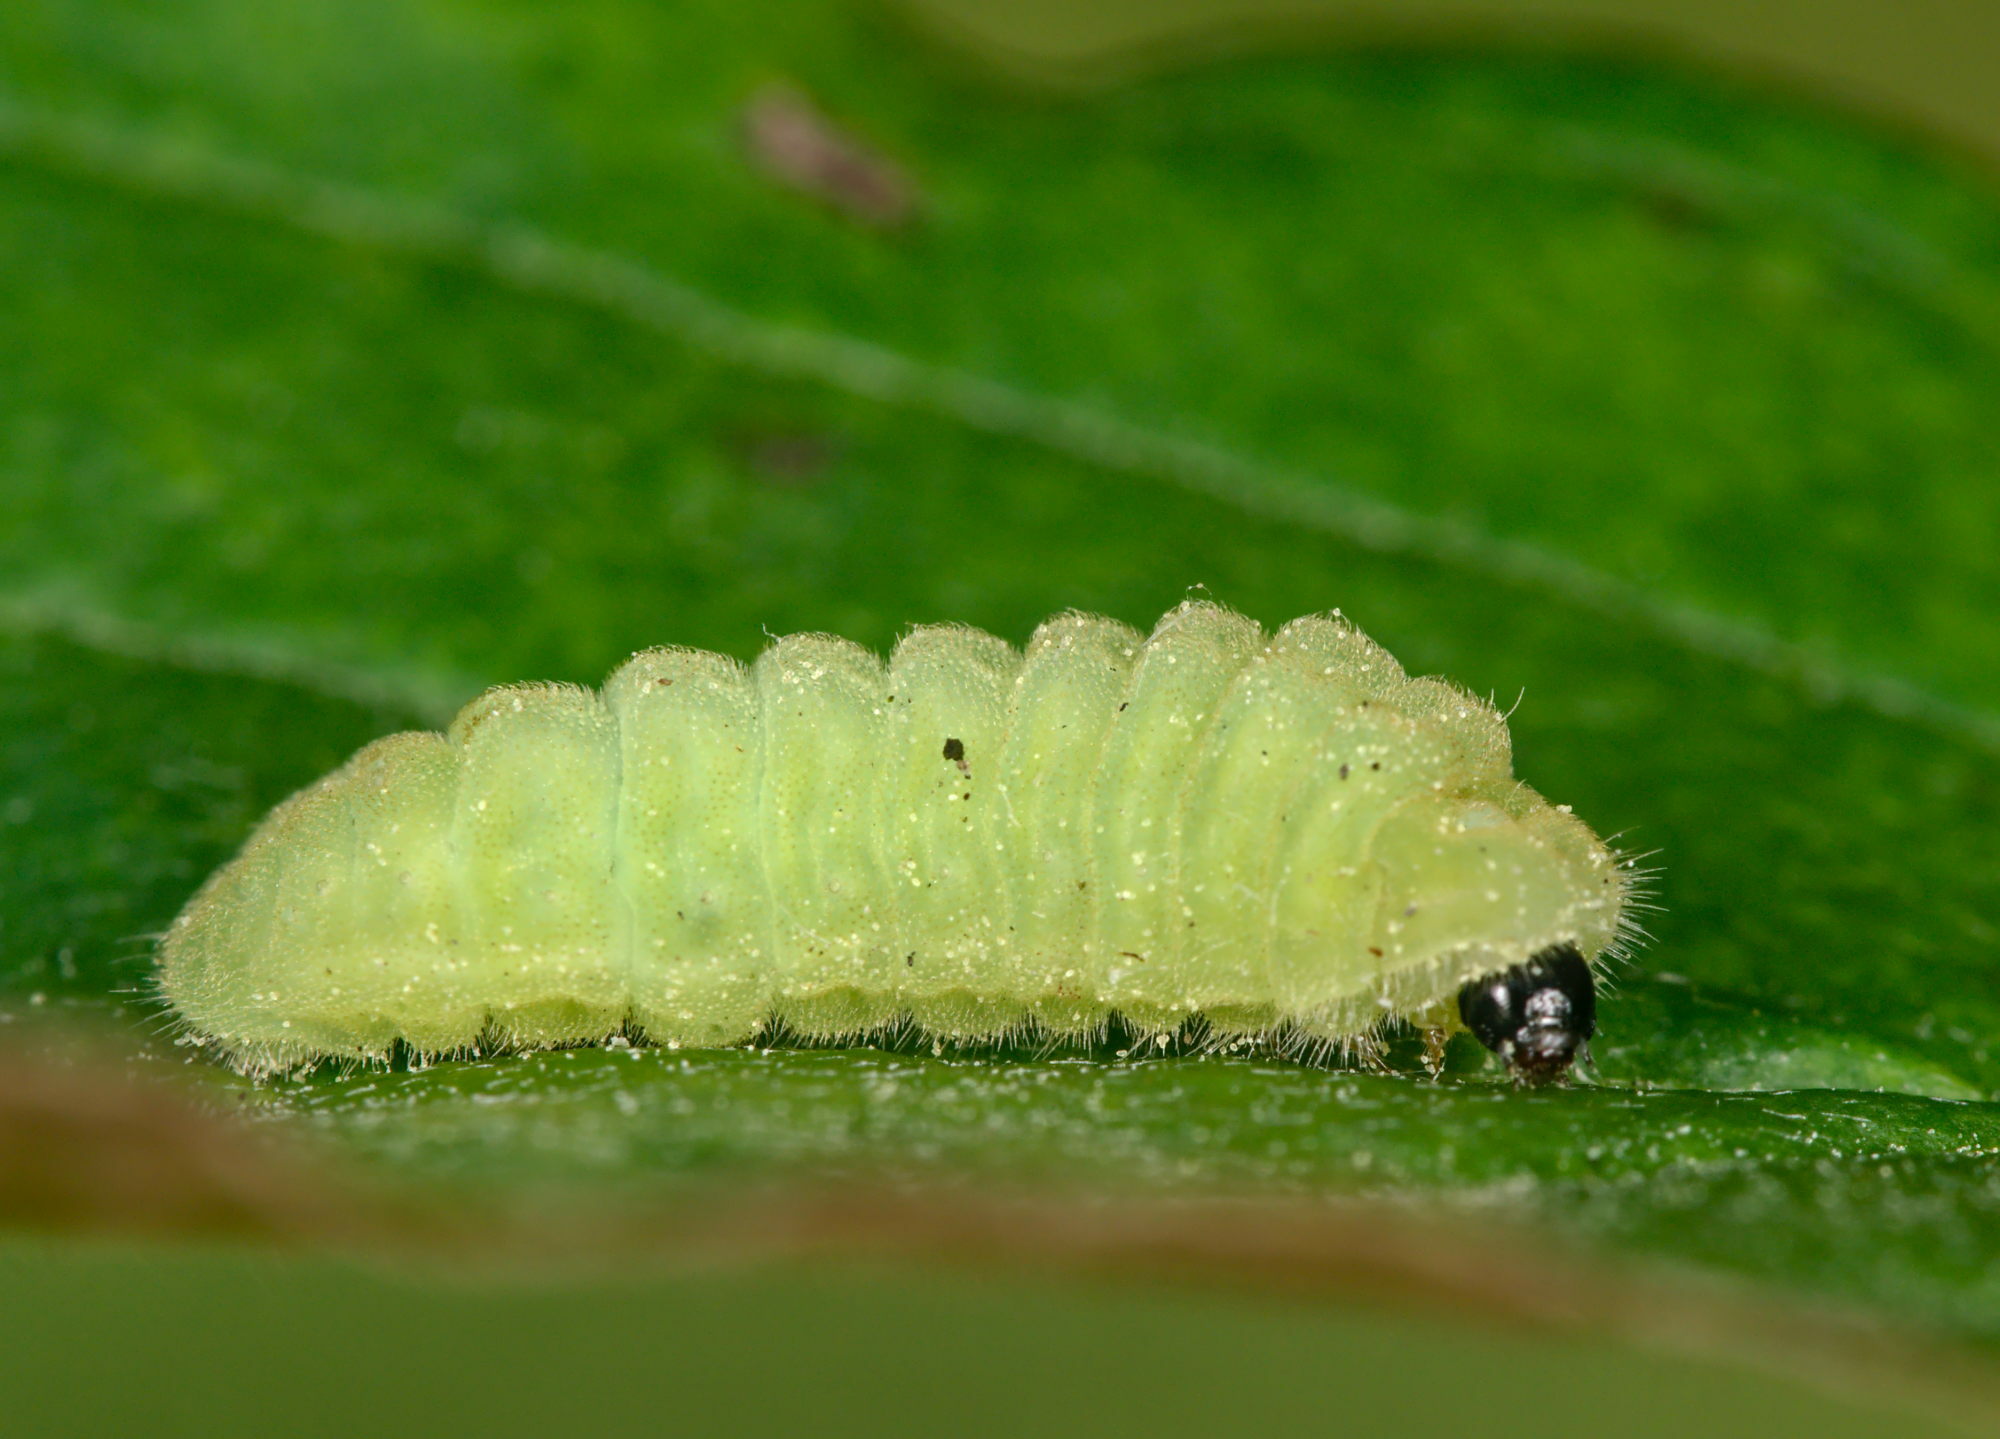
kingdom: Animalia
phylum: Arthropoda
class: Insecta
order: Lepidoptera
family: Lycaenidae
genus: Celastrina
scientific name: Celastrina argiolus
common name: Holly blue
